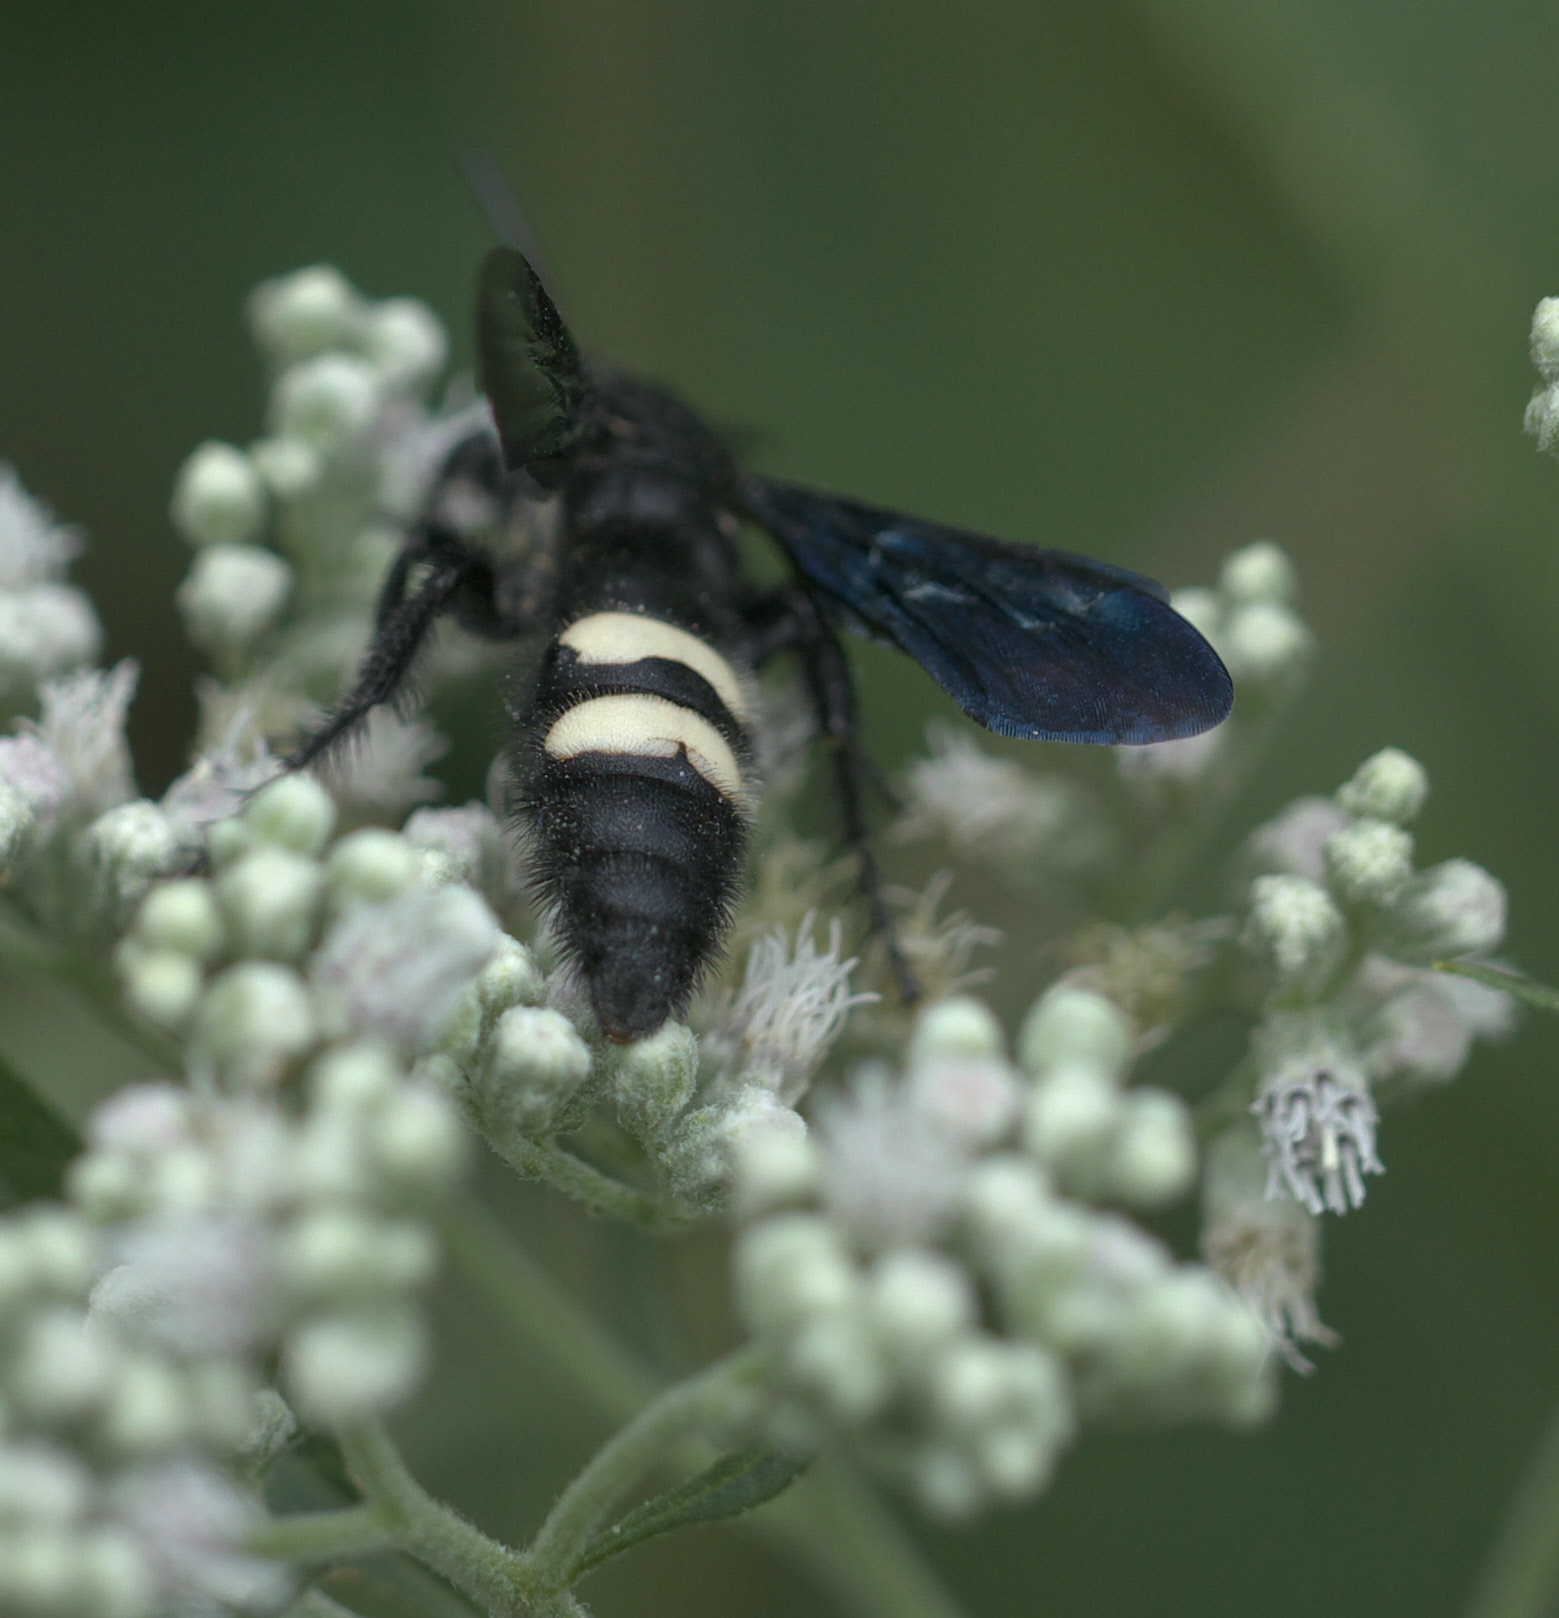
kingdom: Animalia
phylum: Arthropoda
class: Insecta
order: Hymenoptera
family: Scoliidae
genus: Scolia
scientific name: Scolia bicincta
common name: Double-banded scoliid wasp
